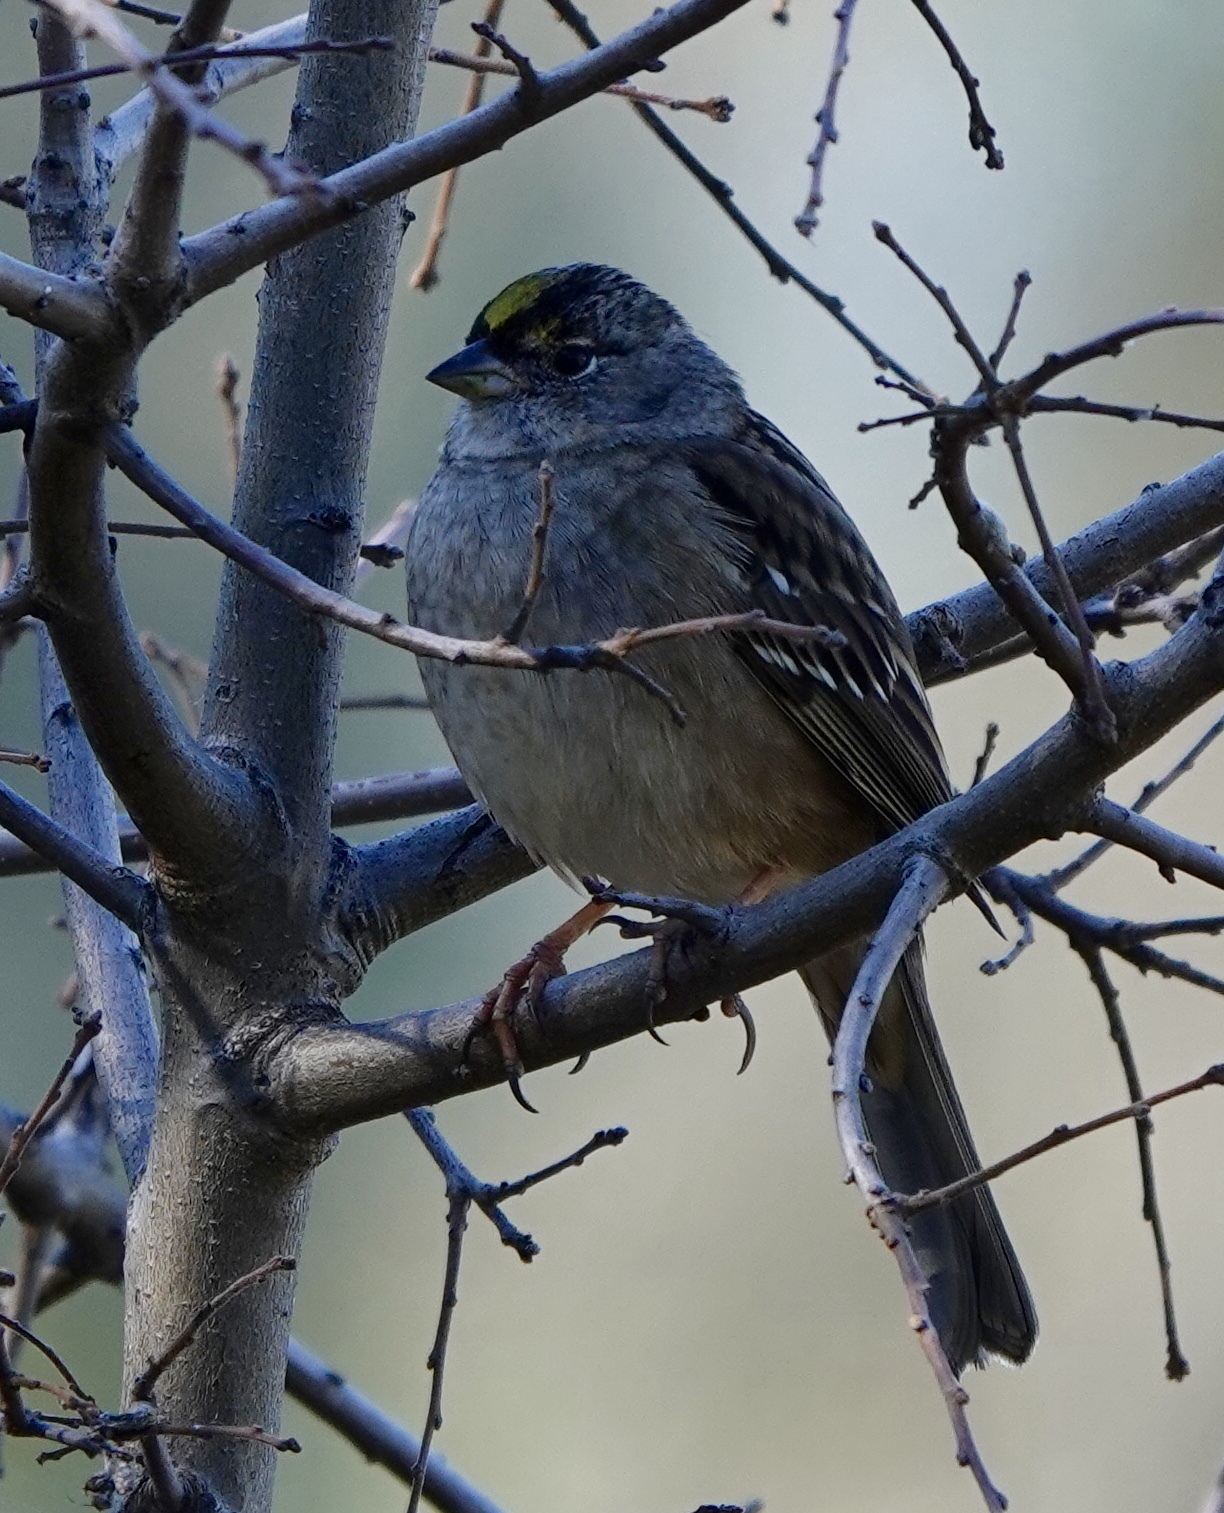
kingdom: Animalia
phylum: Chordata
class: Aves
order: Passeriformes
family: Passerellidae
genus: Zonotrichia
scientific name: Zonotrichia atricapilla
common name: Golden-crowned sparrow
